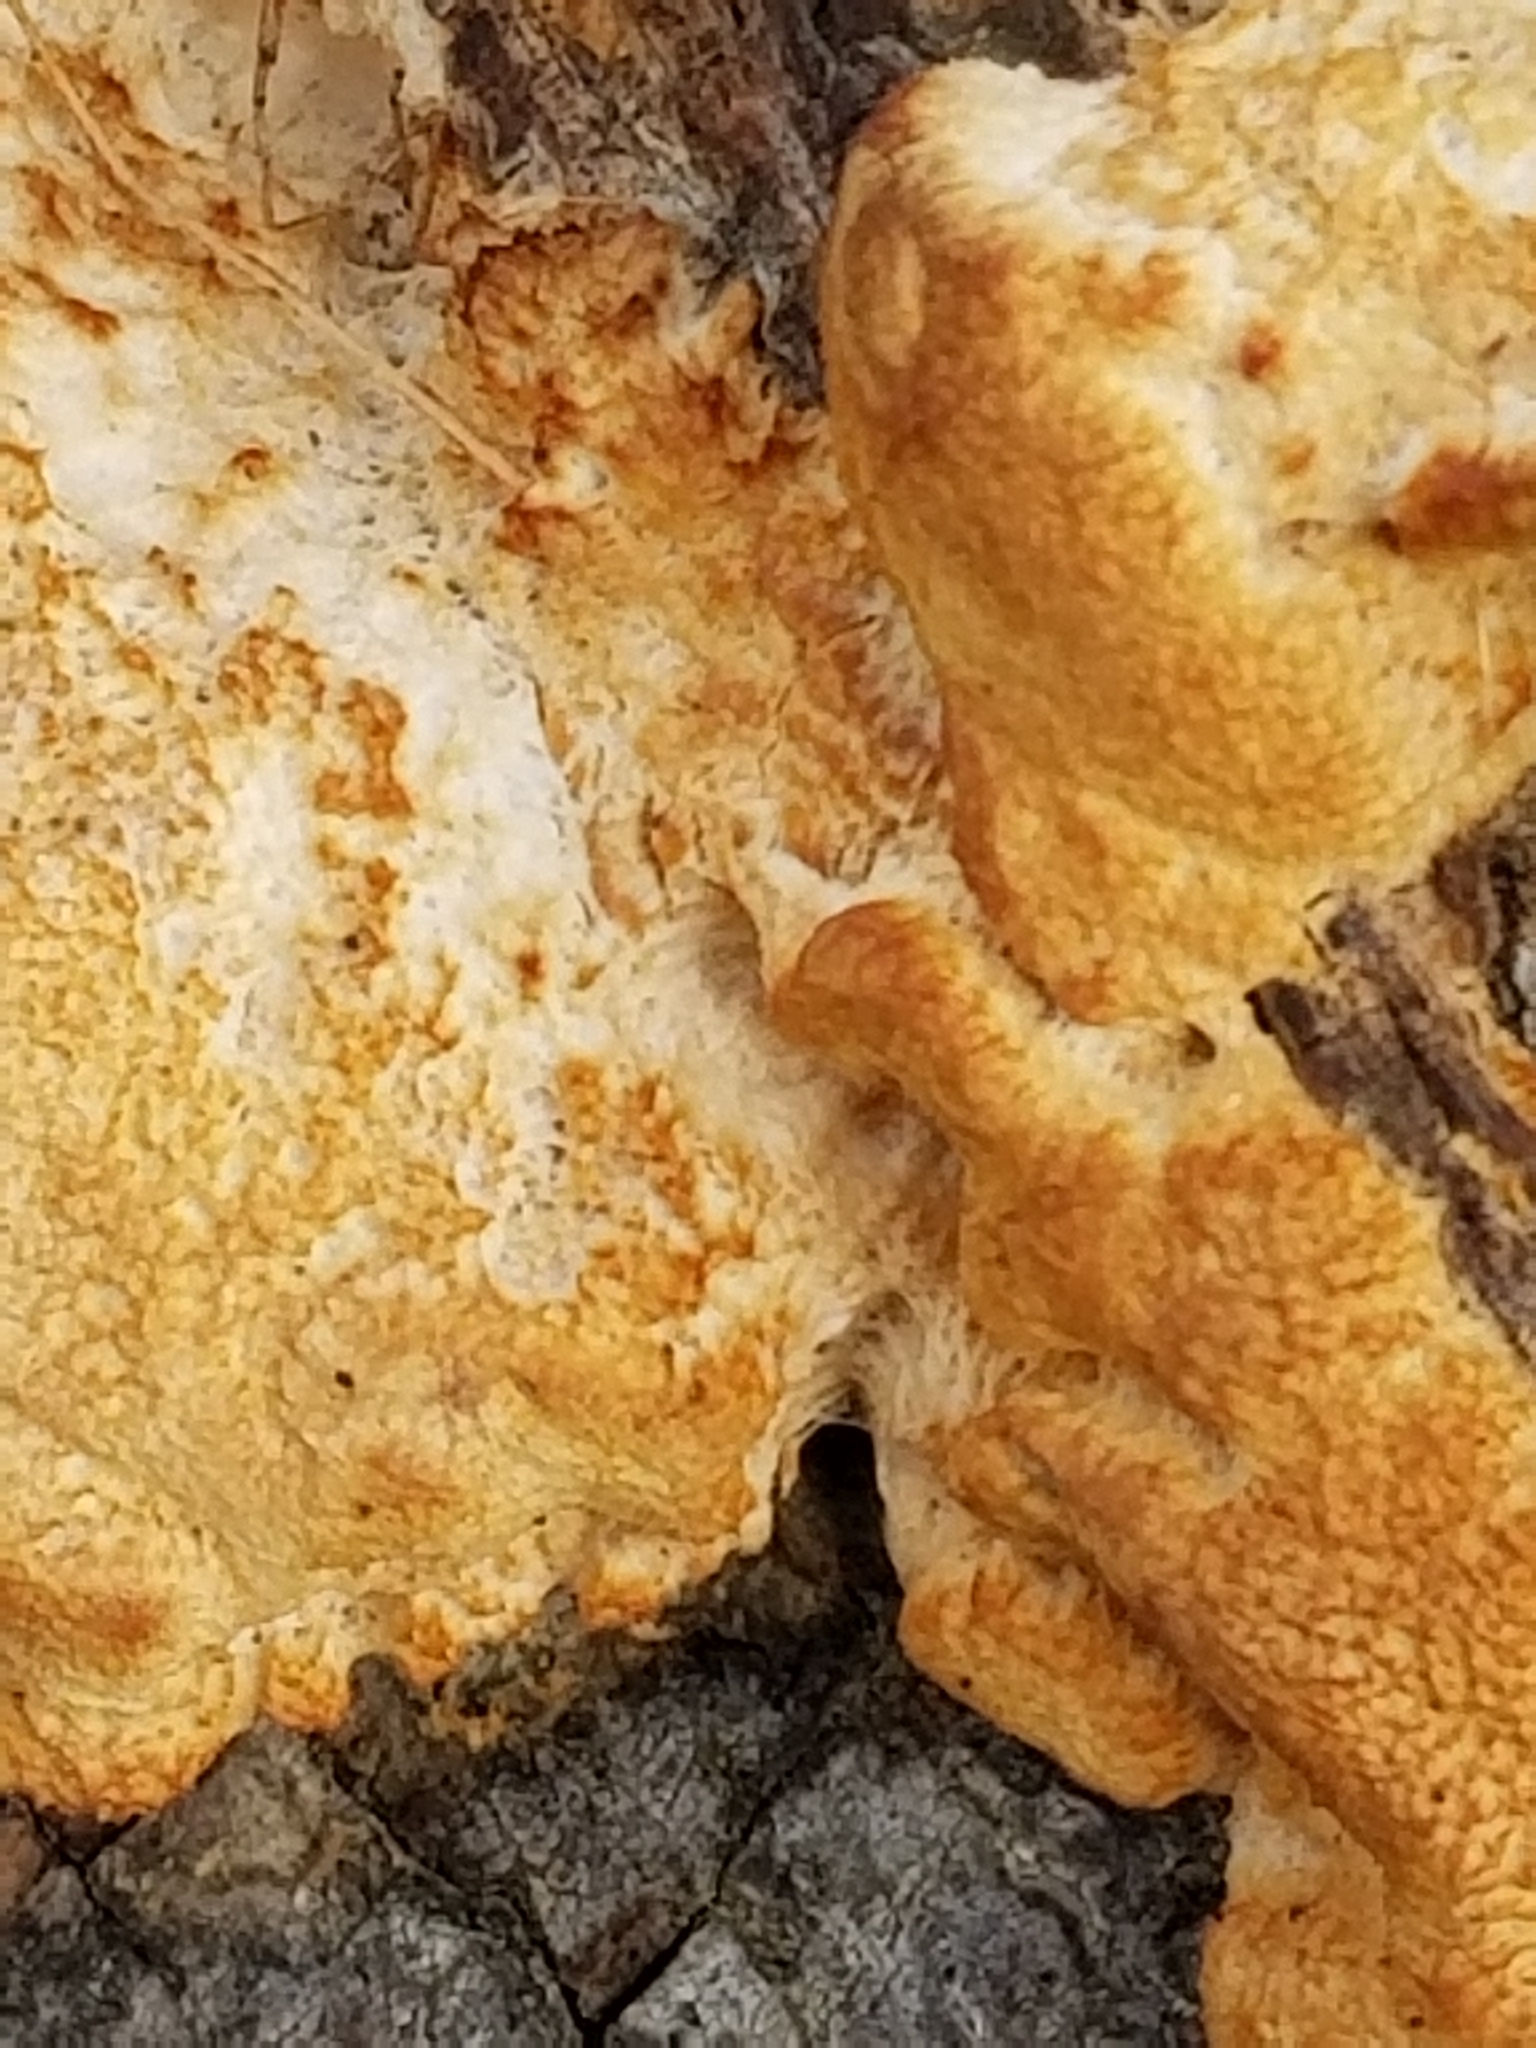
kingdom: Protozoa
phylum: Mycetozoa
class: Myxomycetes
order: Physarales
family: Physaraceae
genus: Fuligo
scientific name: Fuligo septica
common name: Dog vomit slime mold
